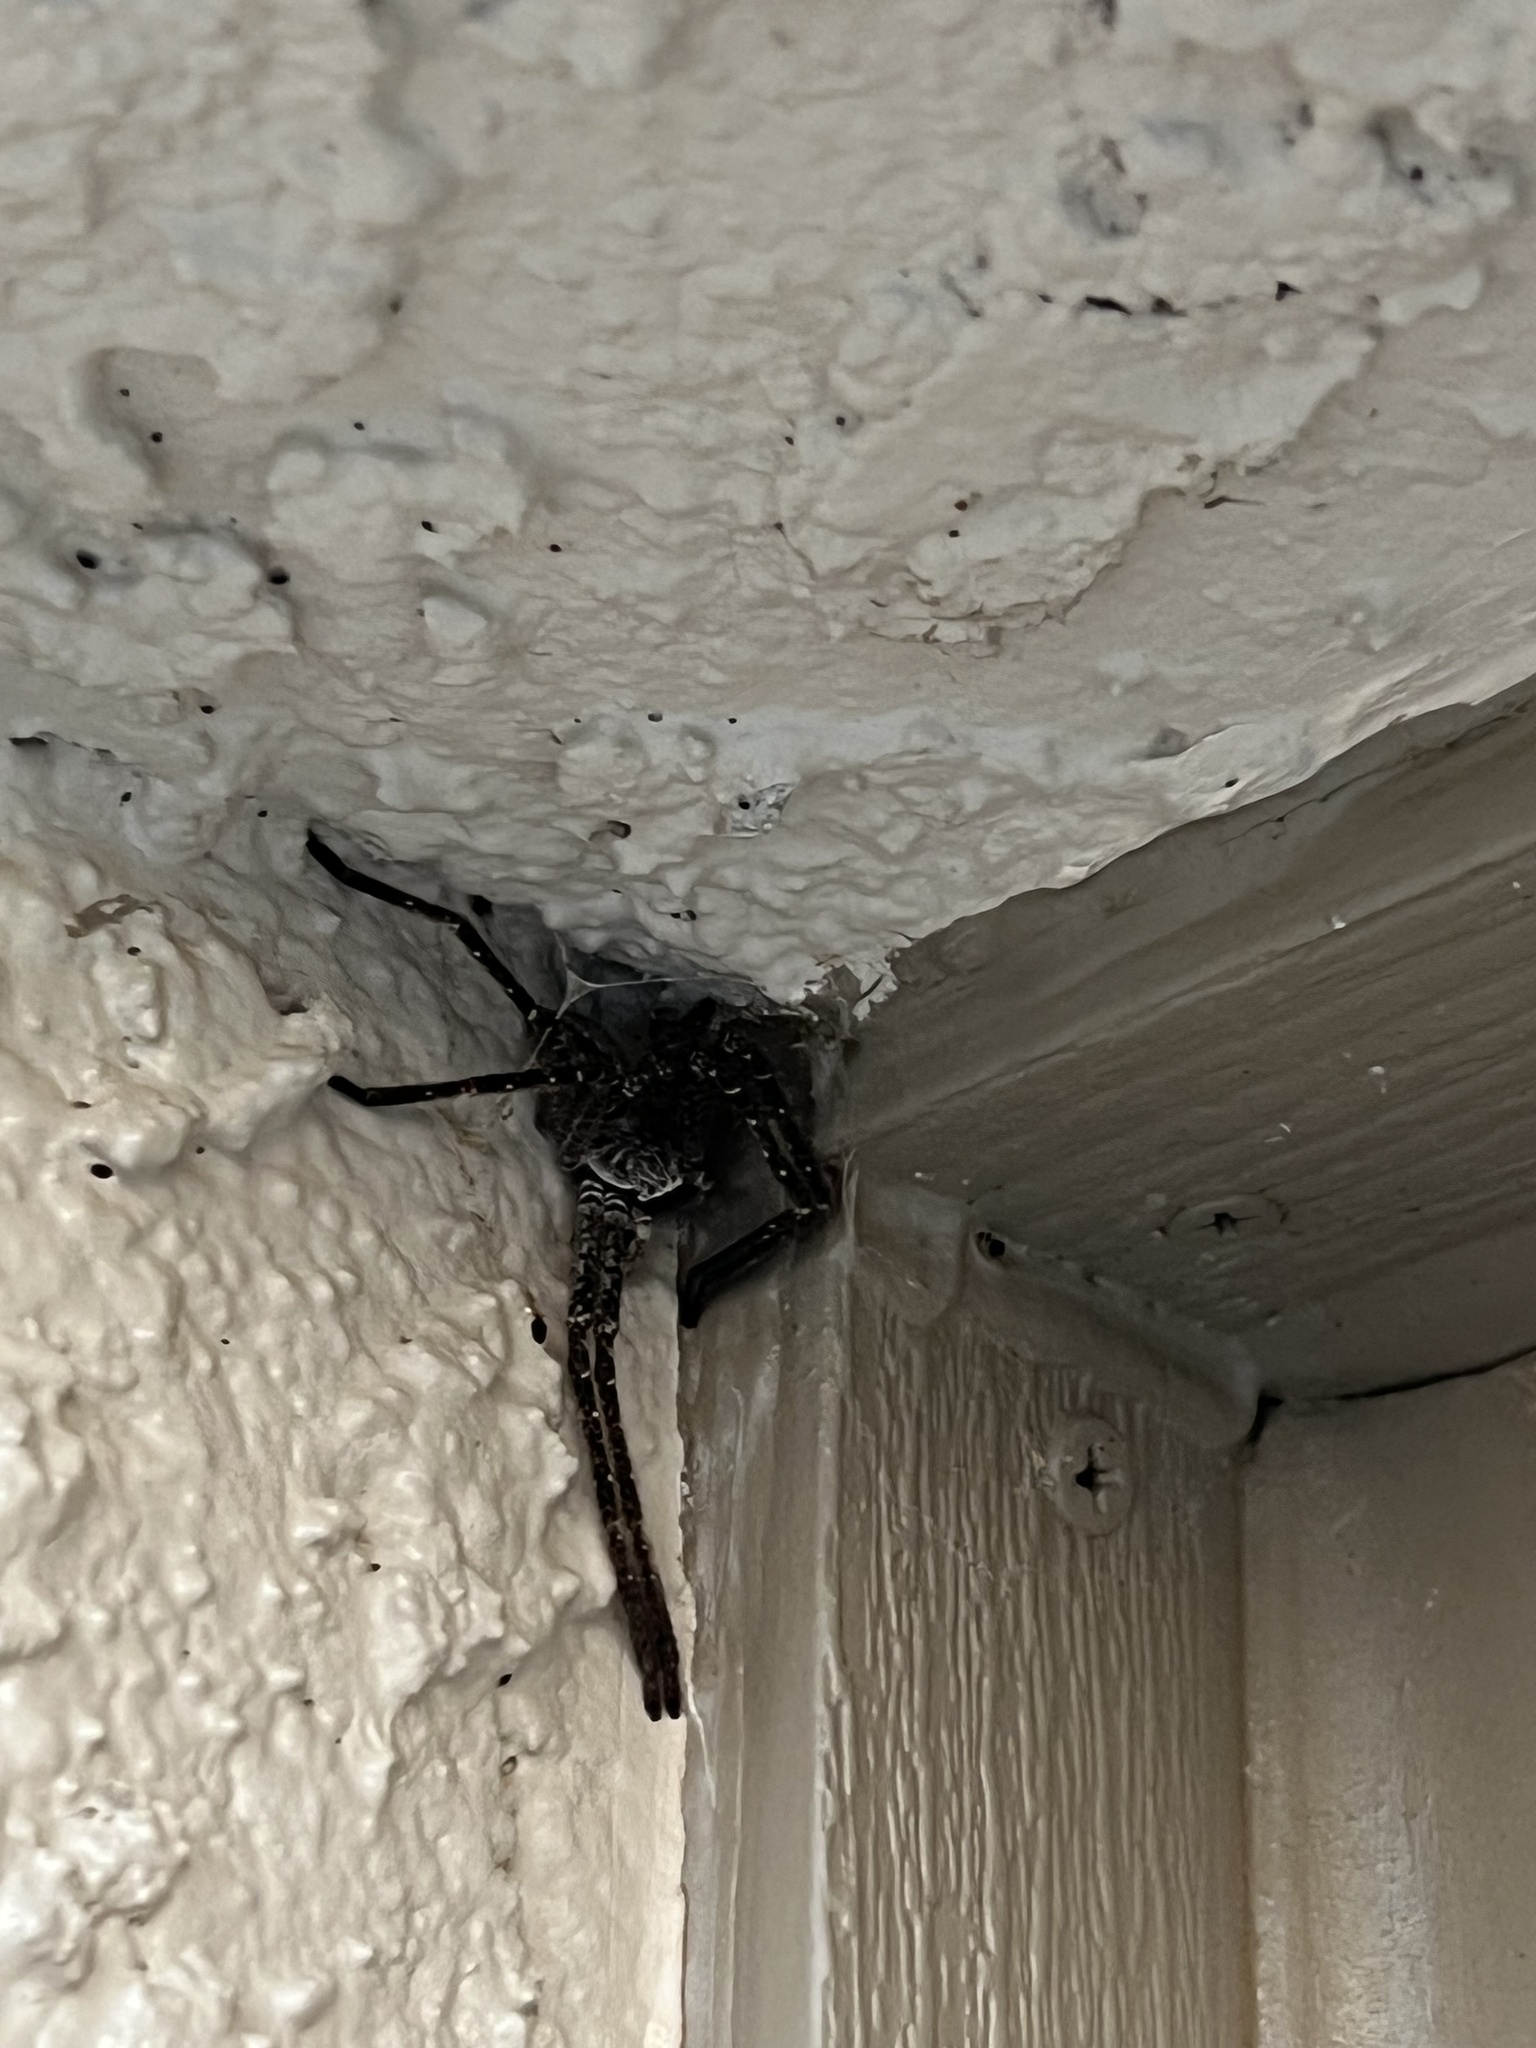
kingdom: Animalia
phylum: Arthropoda
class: Arachnida
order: Araneae
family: Sparassidae
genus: Olios
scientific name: Olios giganteus
